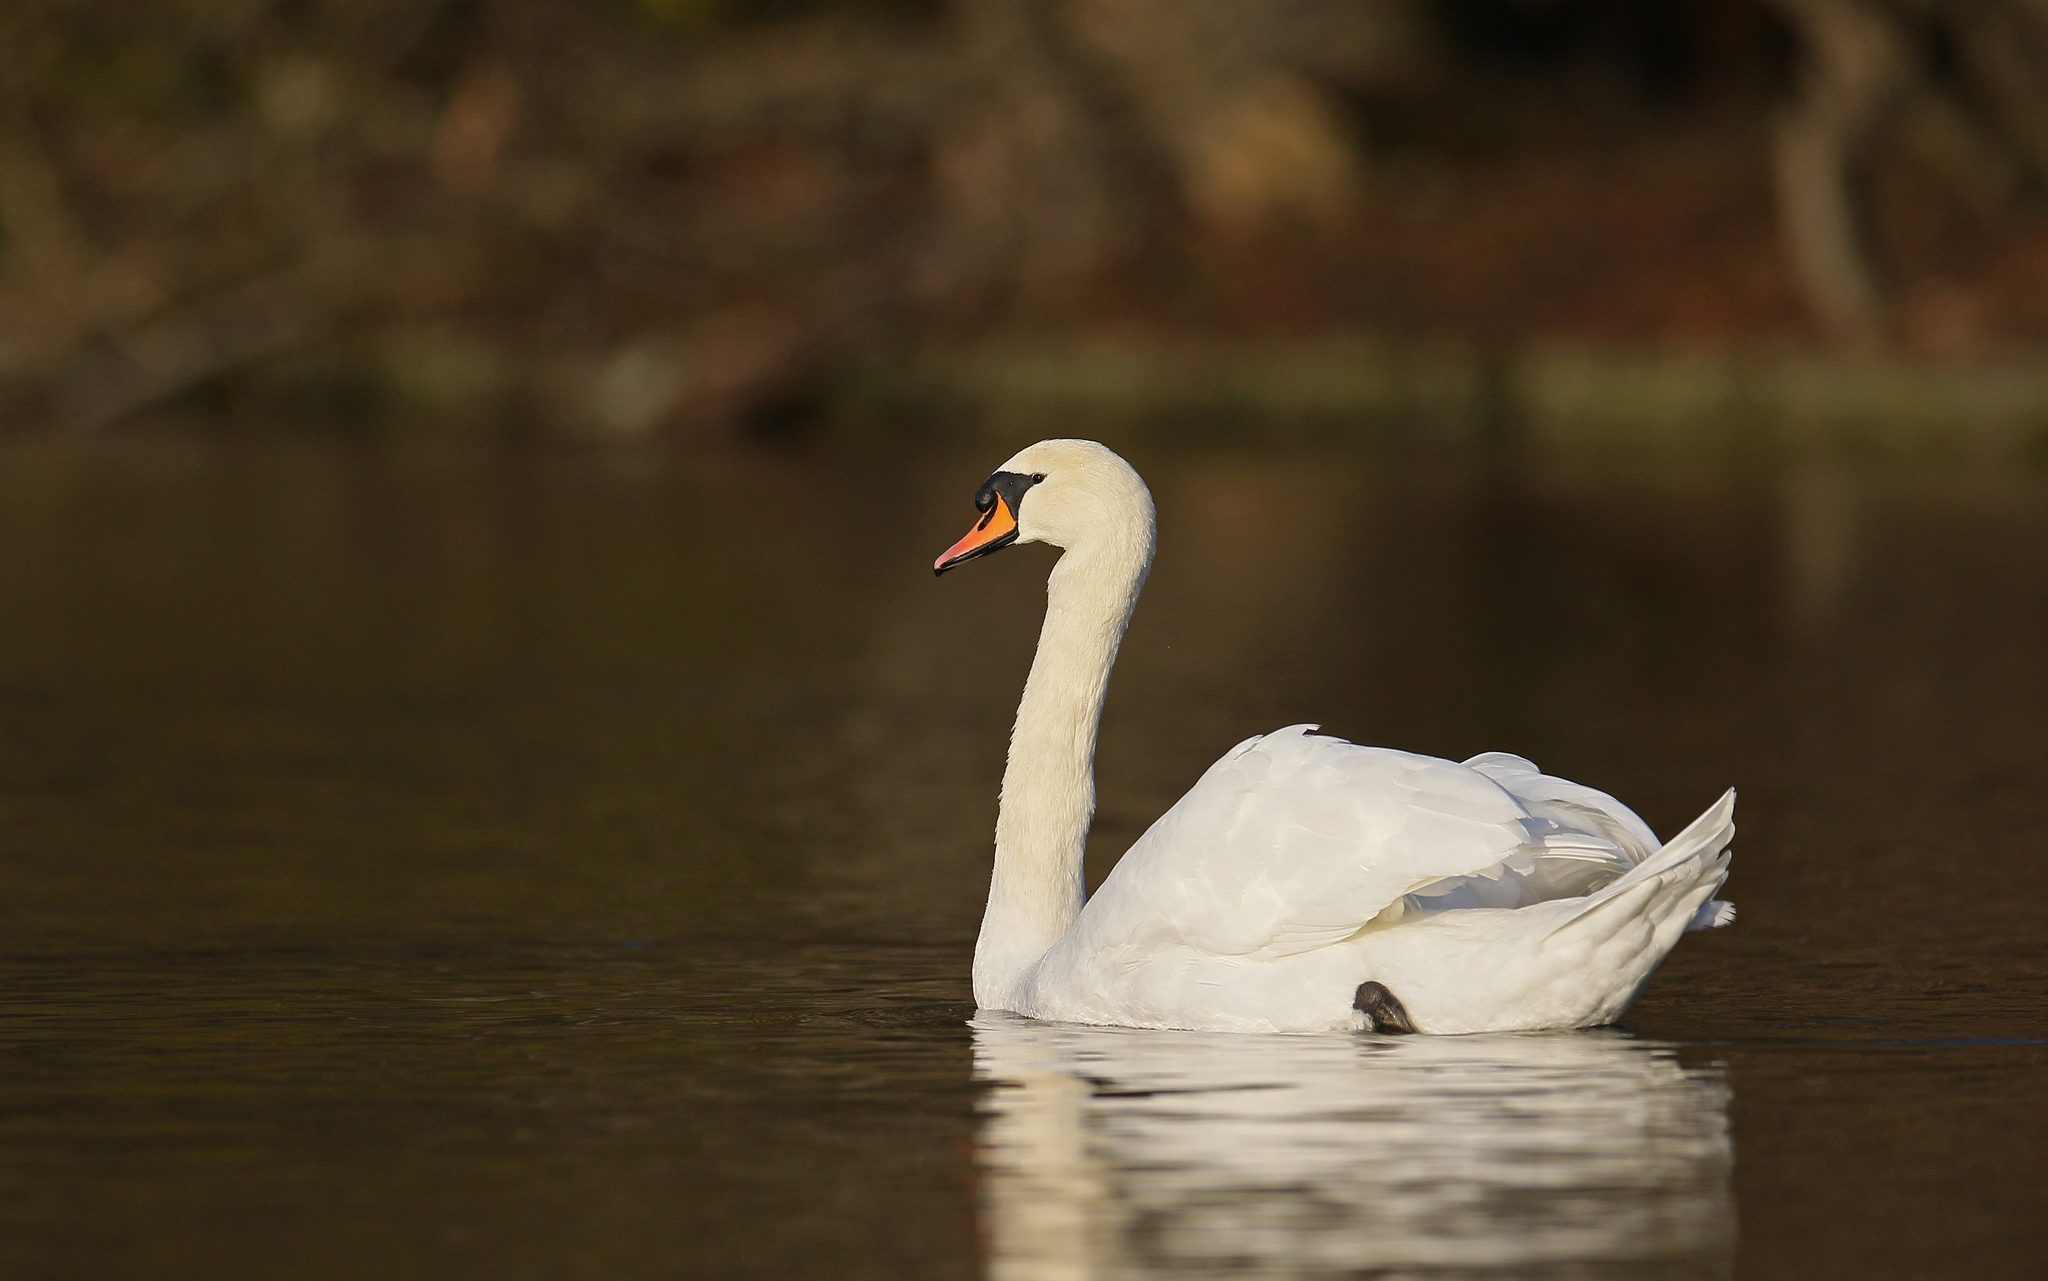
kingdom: Animalia
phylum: Chordata
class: Aves
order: Anseriformes
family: Anatidae
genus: Cygnus
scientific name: Cygnus olor
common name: Mute swan
